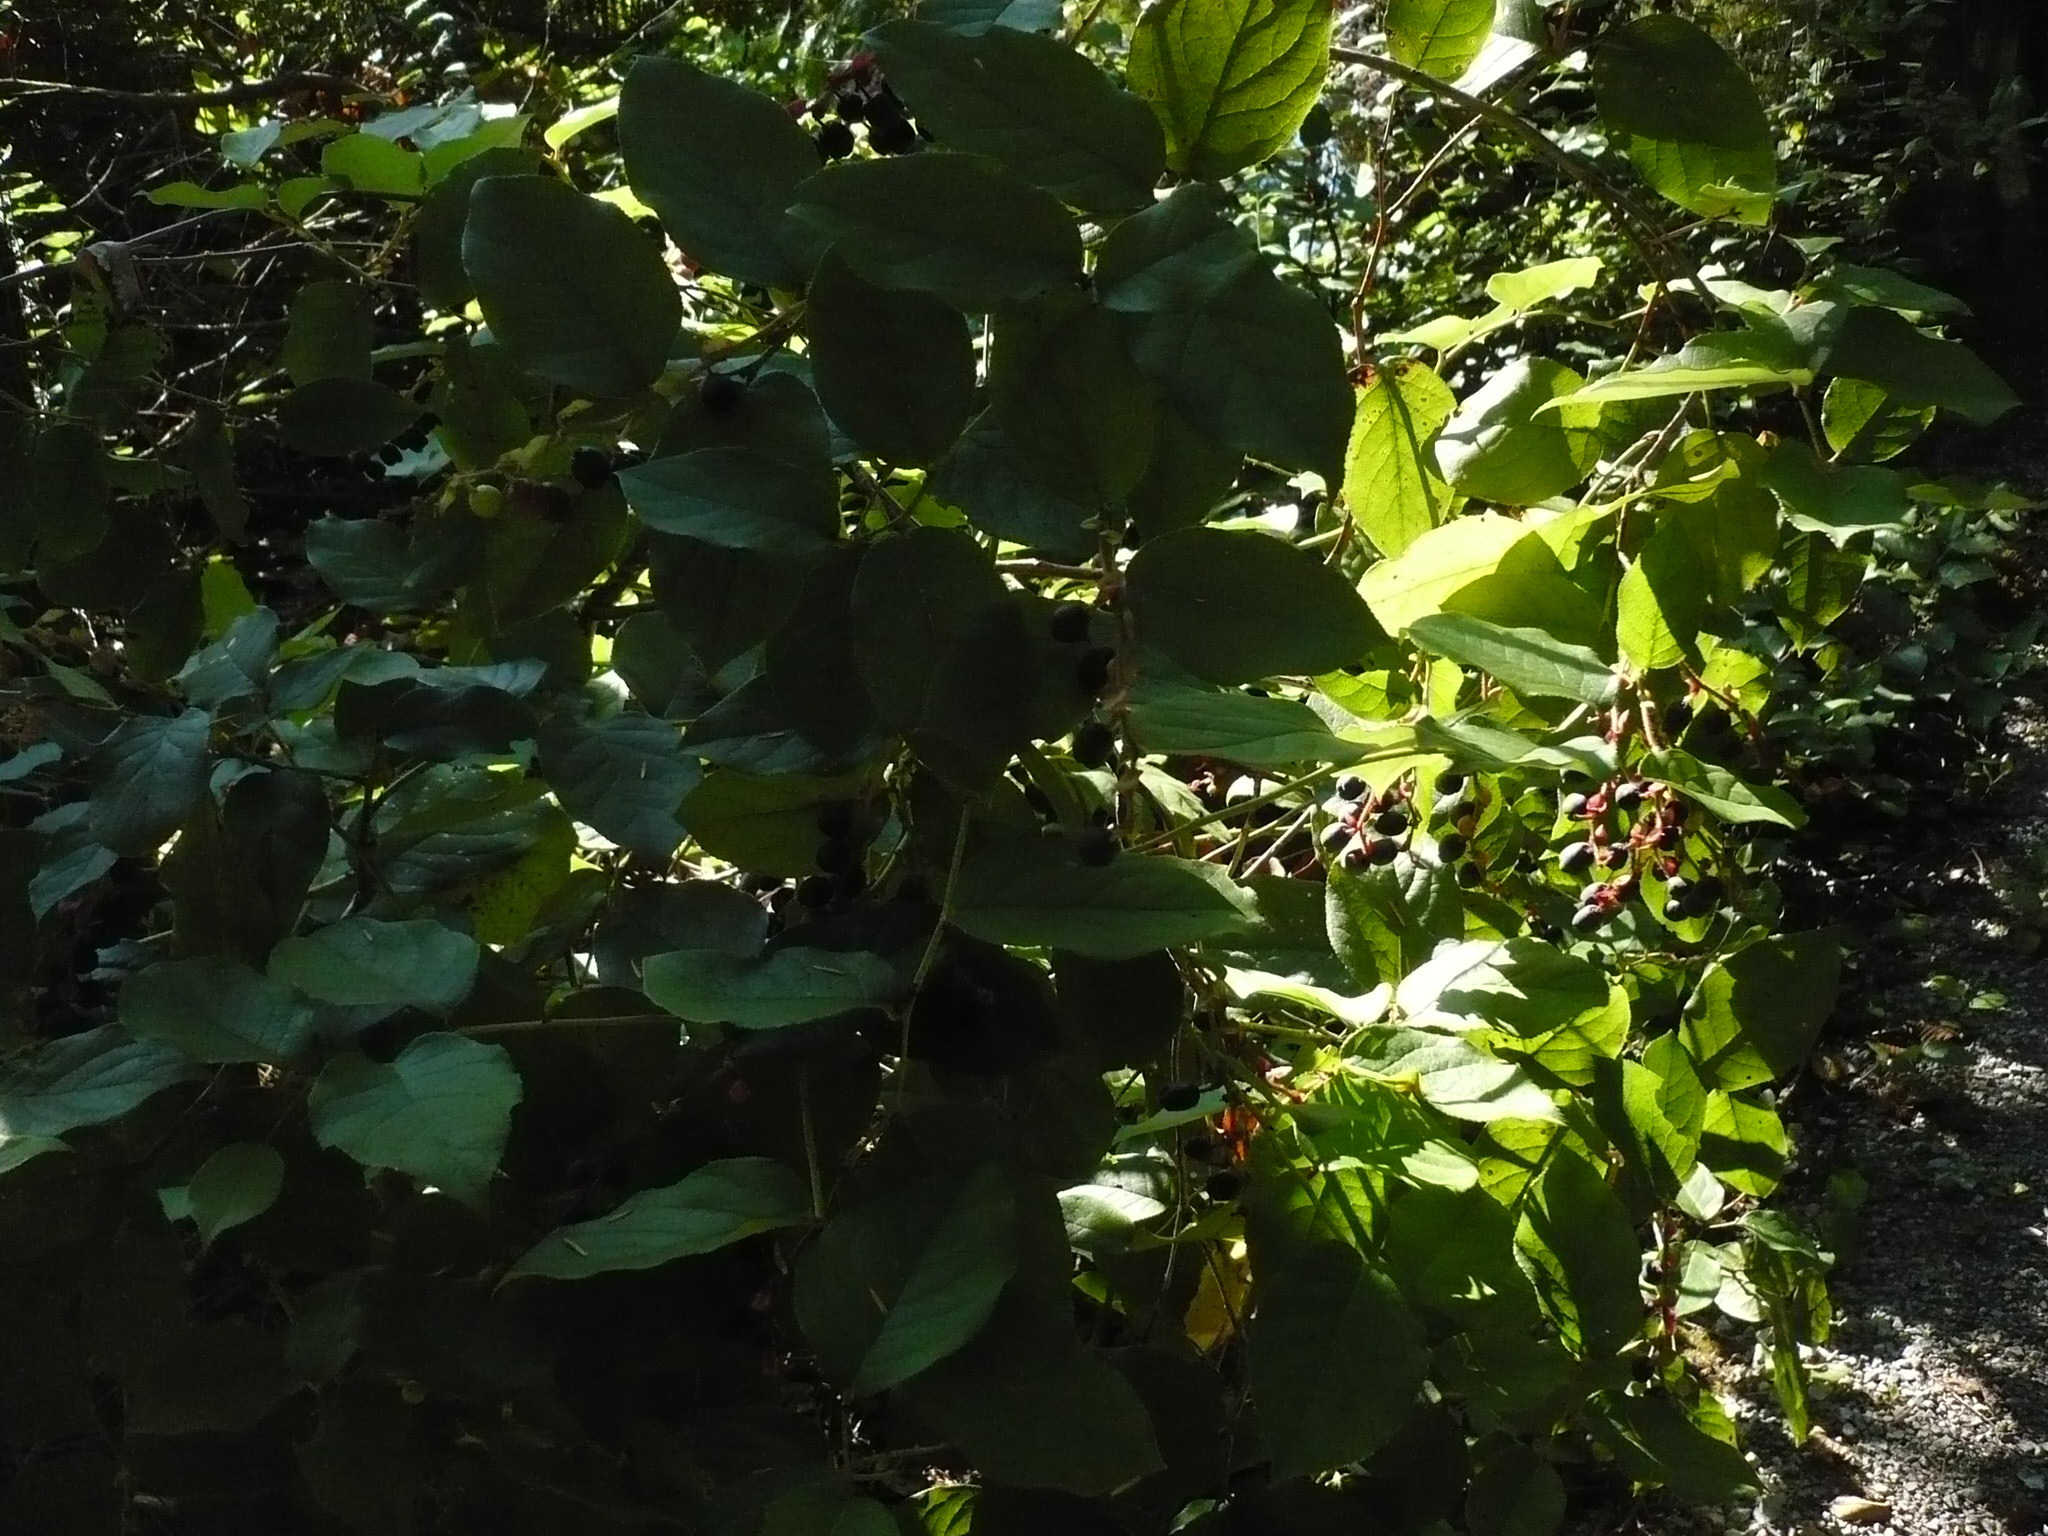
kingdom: Plantae
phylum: Tracheophyta
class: Magnoliopsida
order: Ericales
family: Ericaceae
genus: Gaultheria
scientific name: Gaultheria shallon
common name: Shallon
